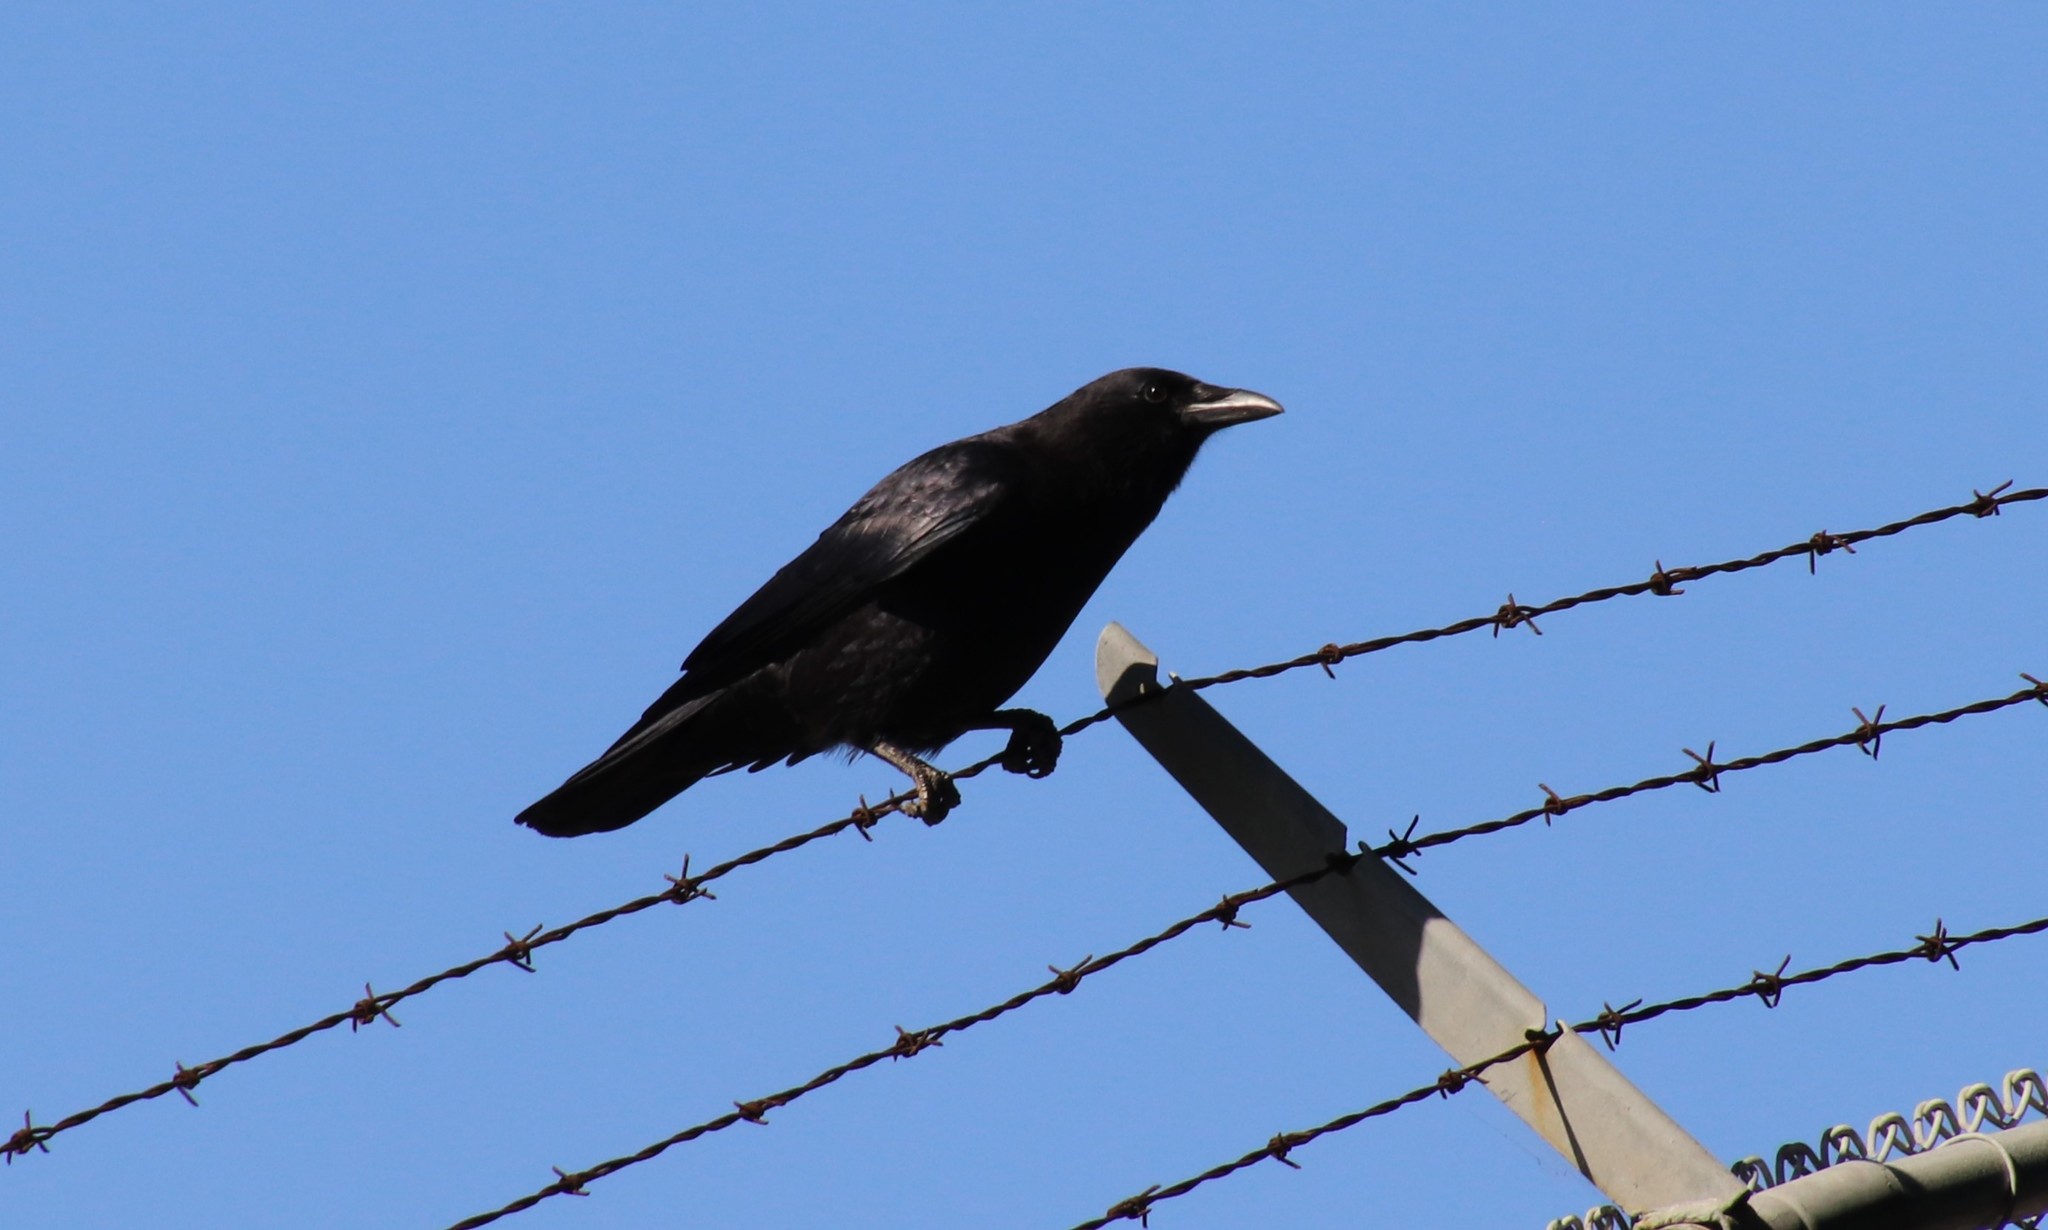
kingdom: Animalia
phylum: Chordata
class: Aves
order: Passeriformes
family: Corvidae
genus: Corvus
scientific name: Corvus brachyrhynchos
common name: American crow
